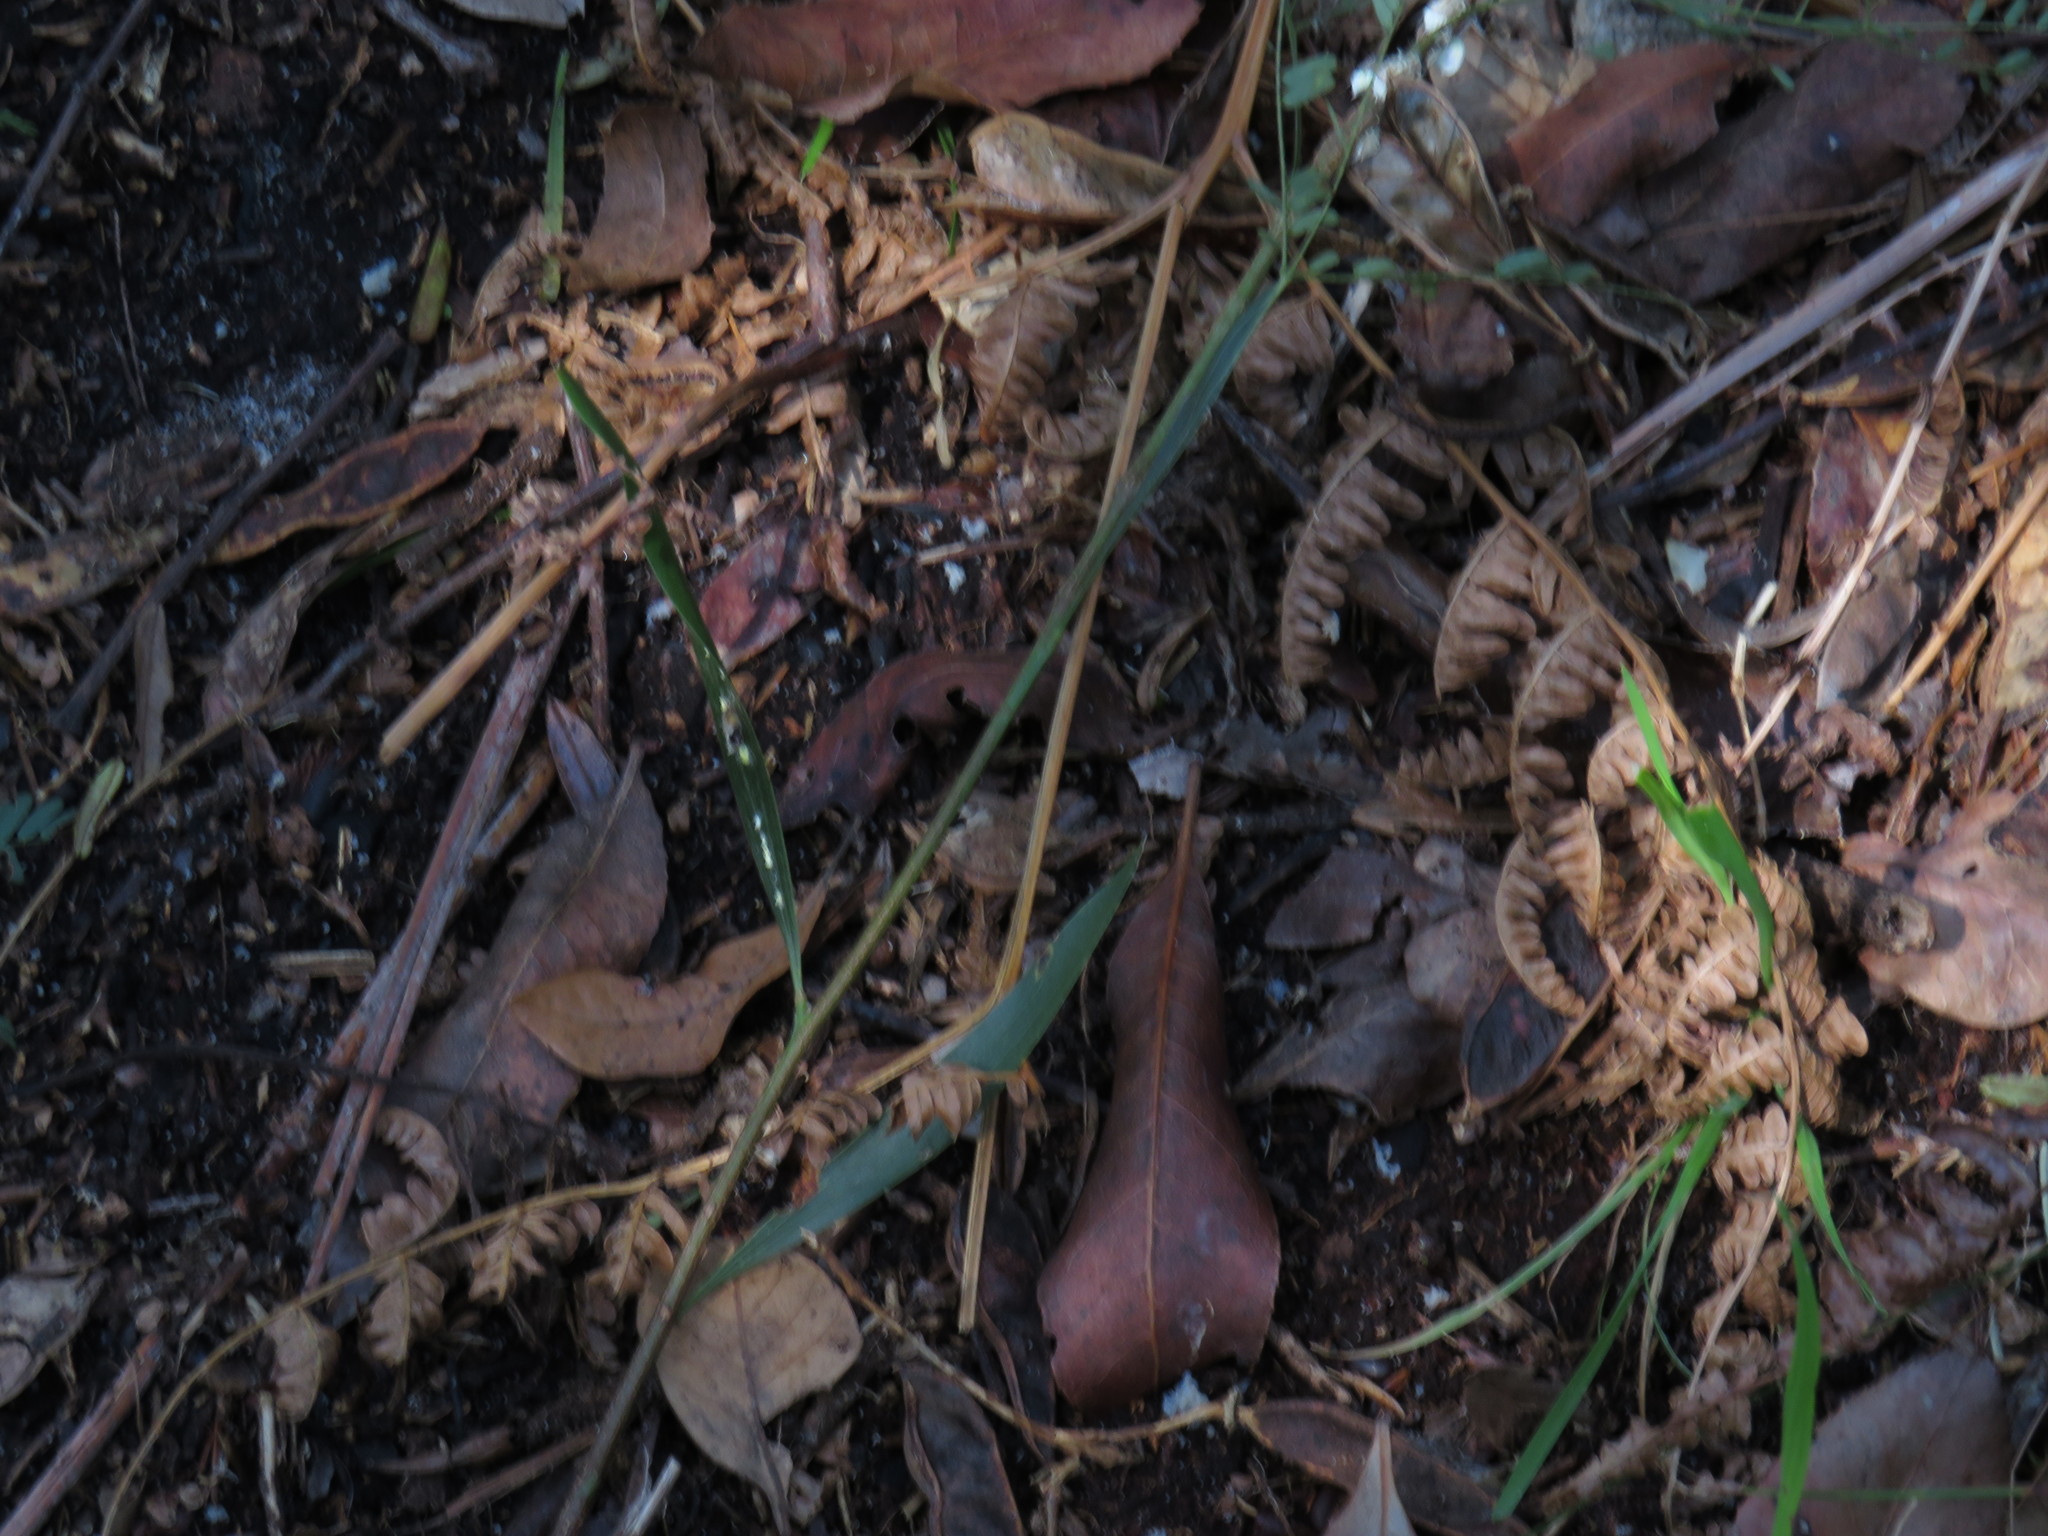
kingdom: Plantae
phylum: Tracheophyta
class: Magnoliopsida
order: Fabales
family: Fabaceae
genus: Acacia
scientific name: Acacia melanoxylon
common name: Blackwood
